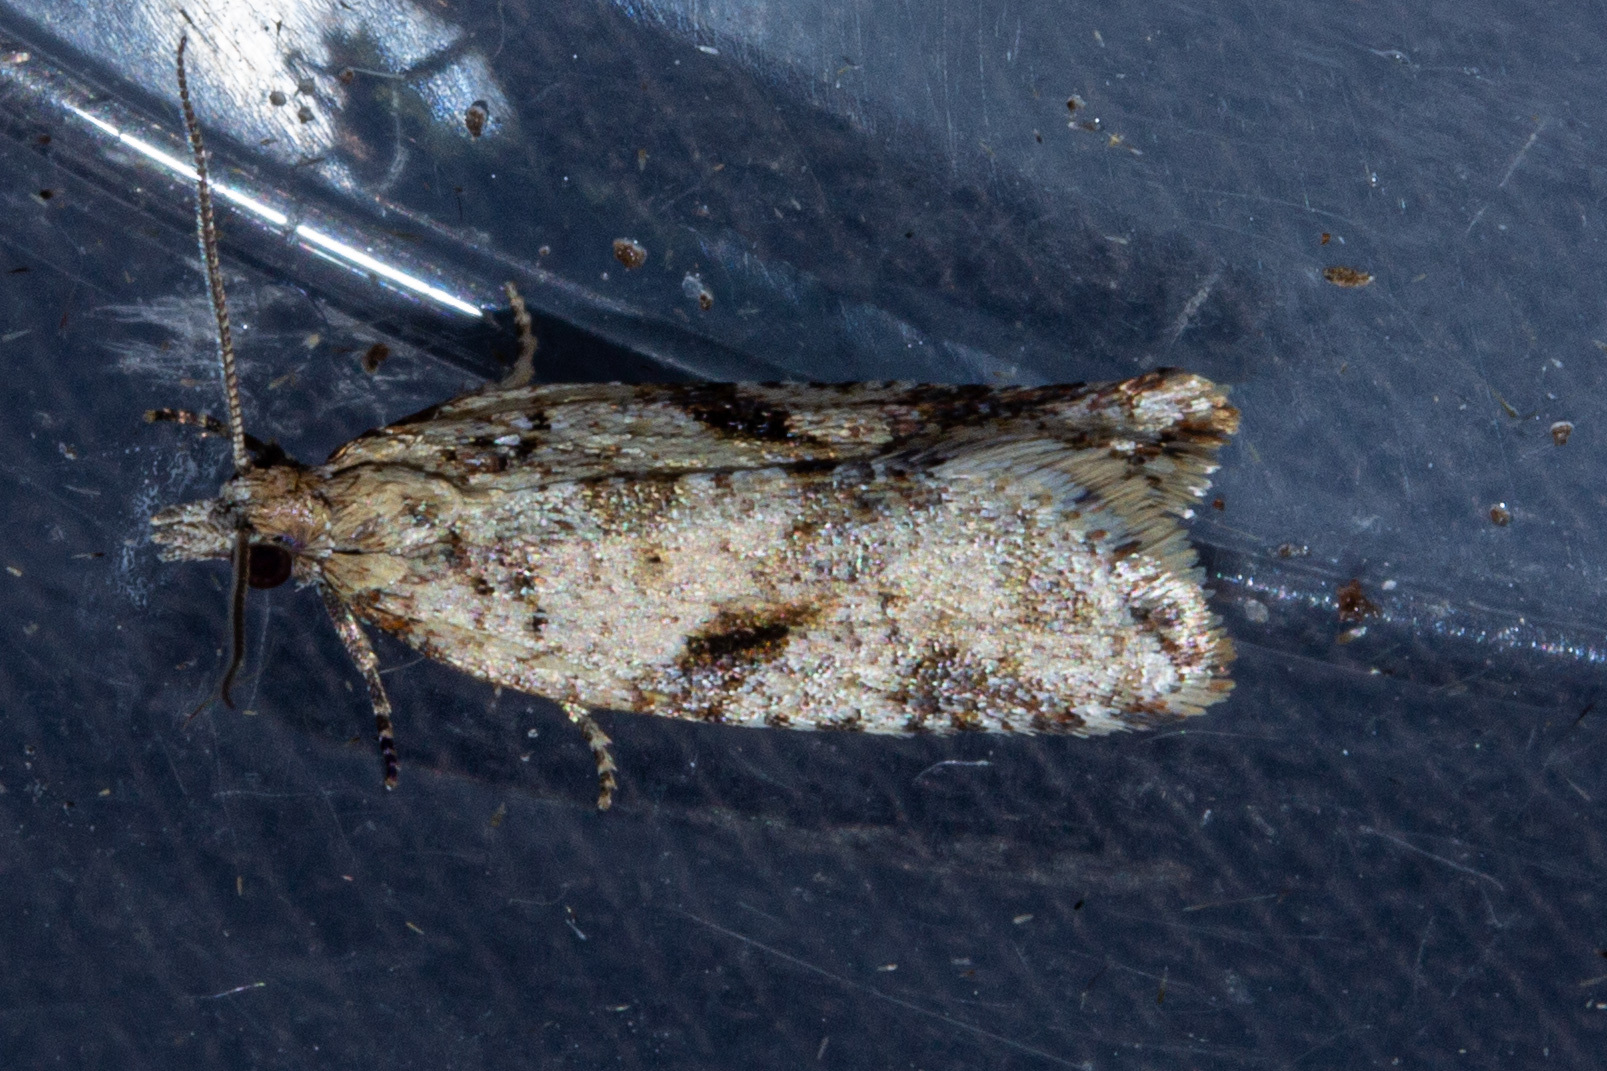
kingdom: Animalia
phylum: Arthropoda
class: Insecta
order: Lepidoptera
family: Tortricidae
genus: Capua
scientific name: Capua semiferana
